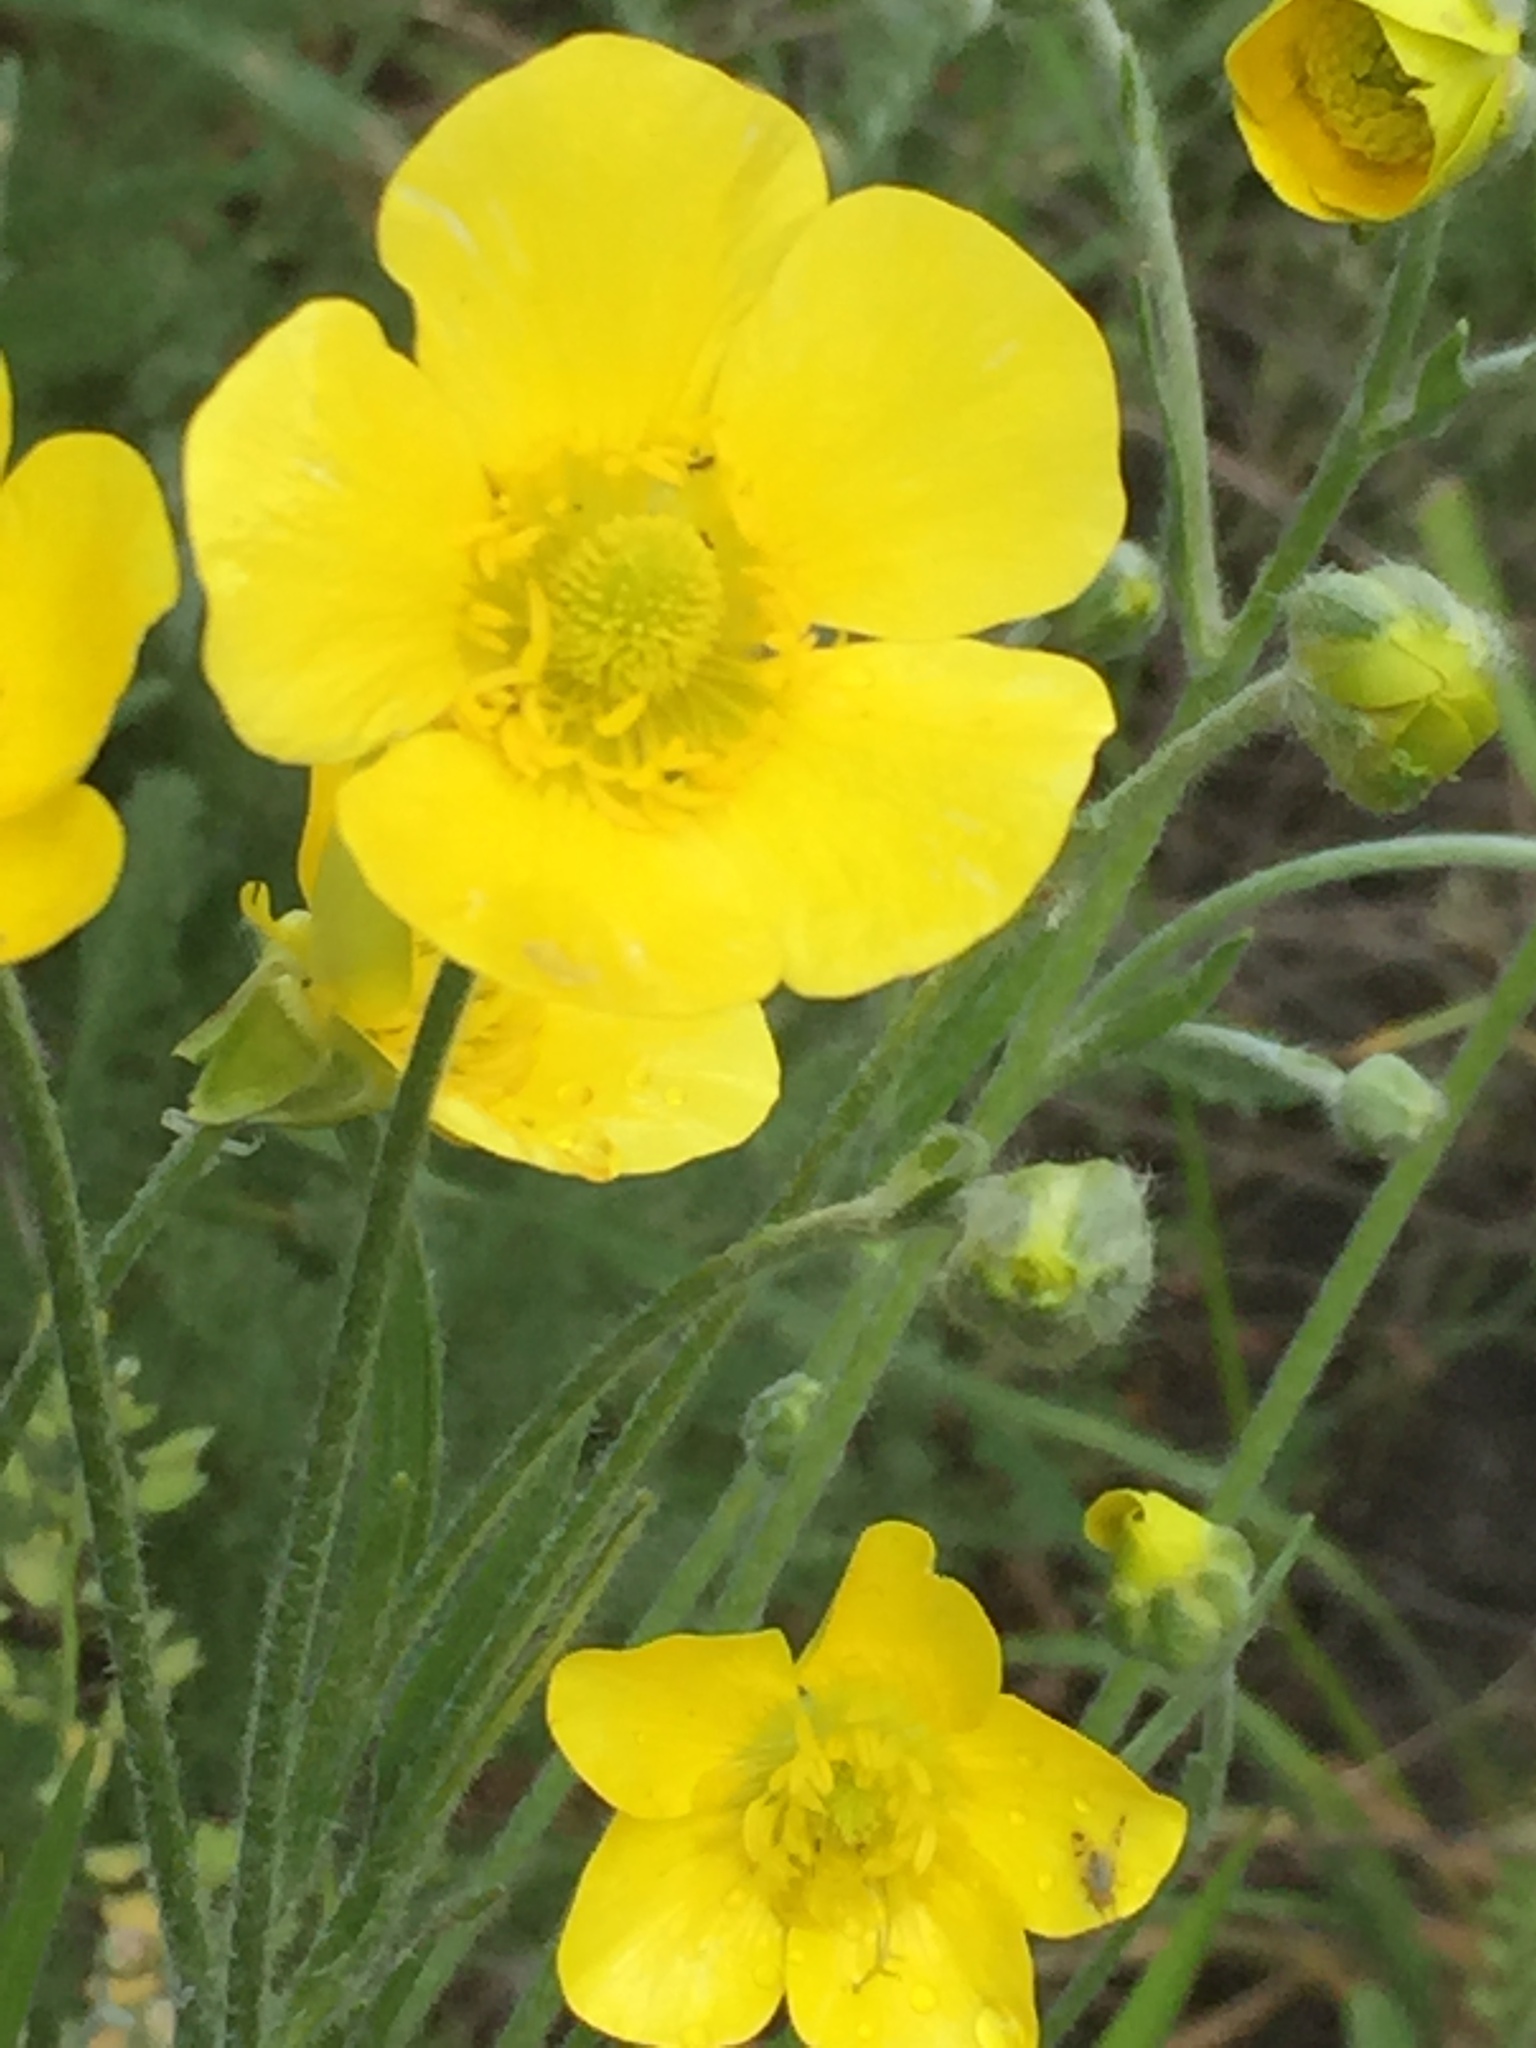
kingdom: Plantae
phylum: Tracheophyta
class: Magnoliopsida
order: Ranunculales
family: Ranunculaceae
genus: Ranunculus
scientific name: Ranunculus illyricus
